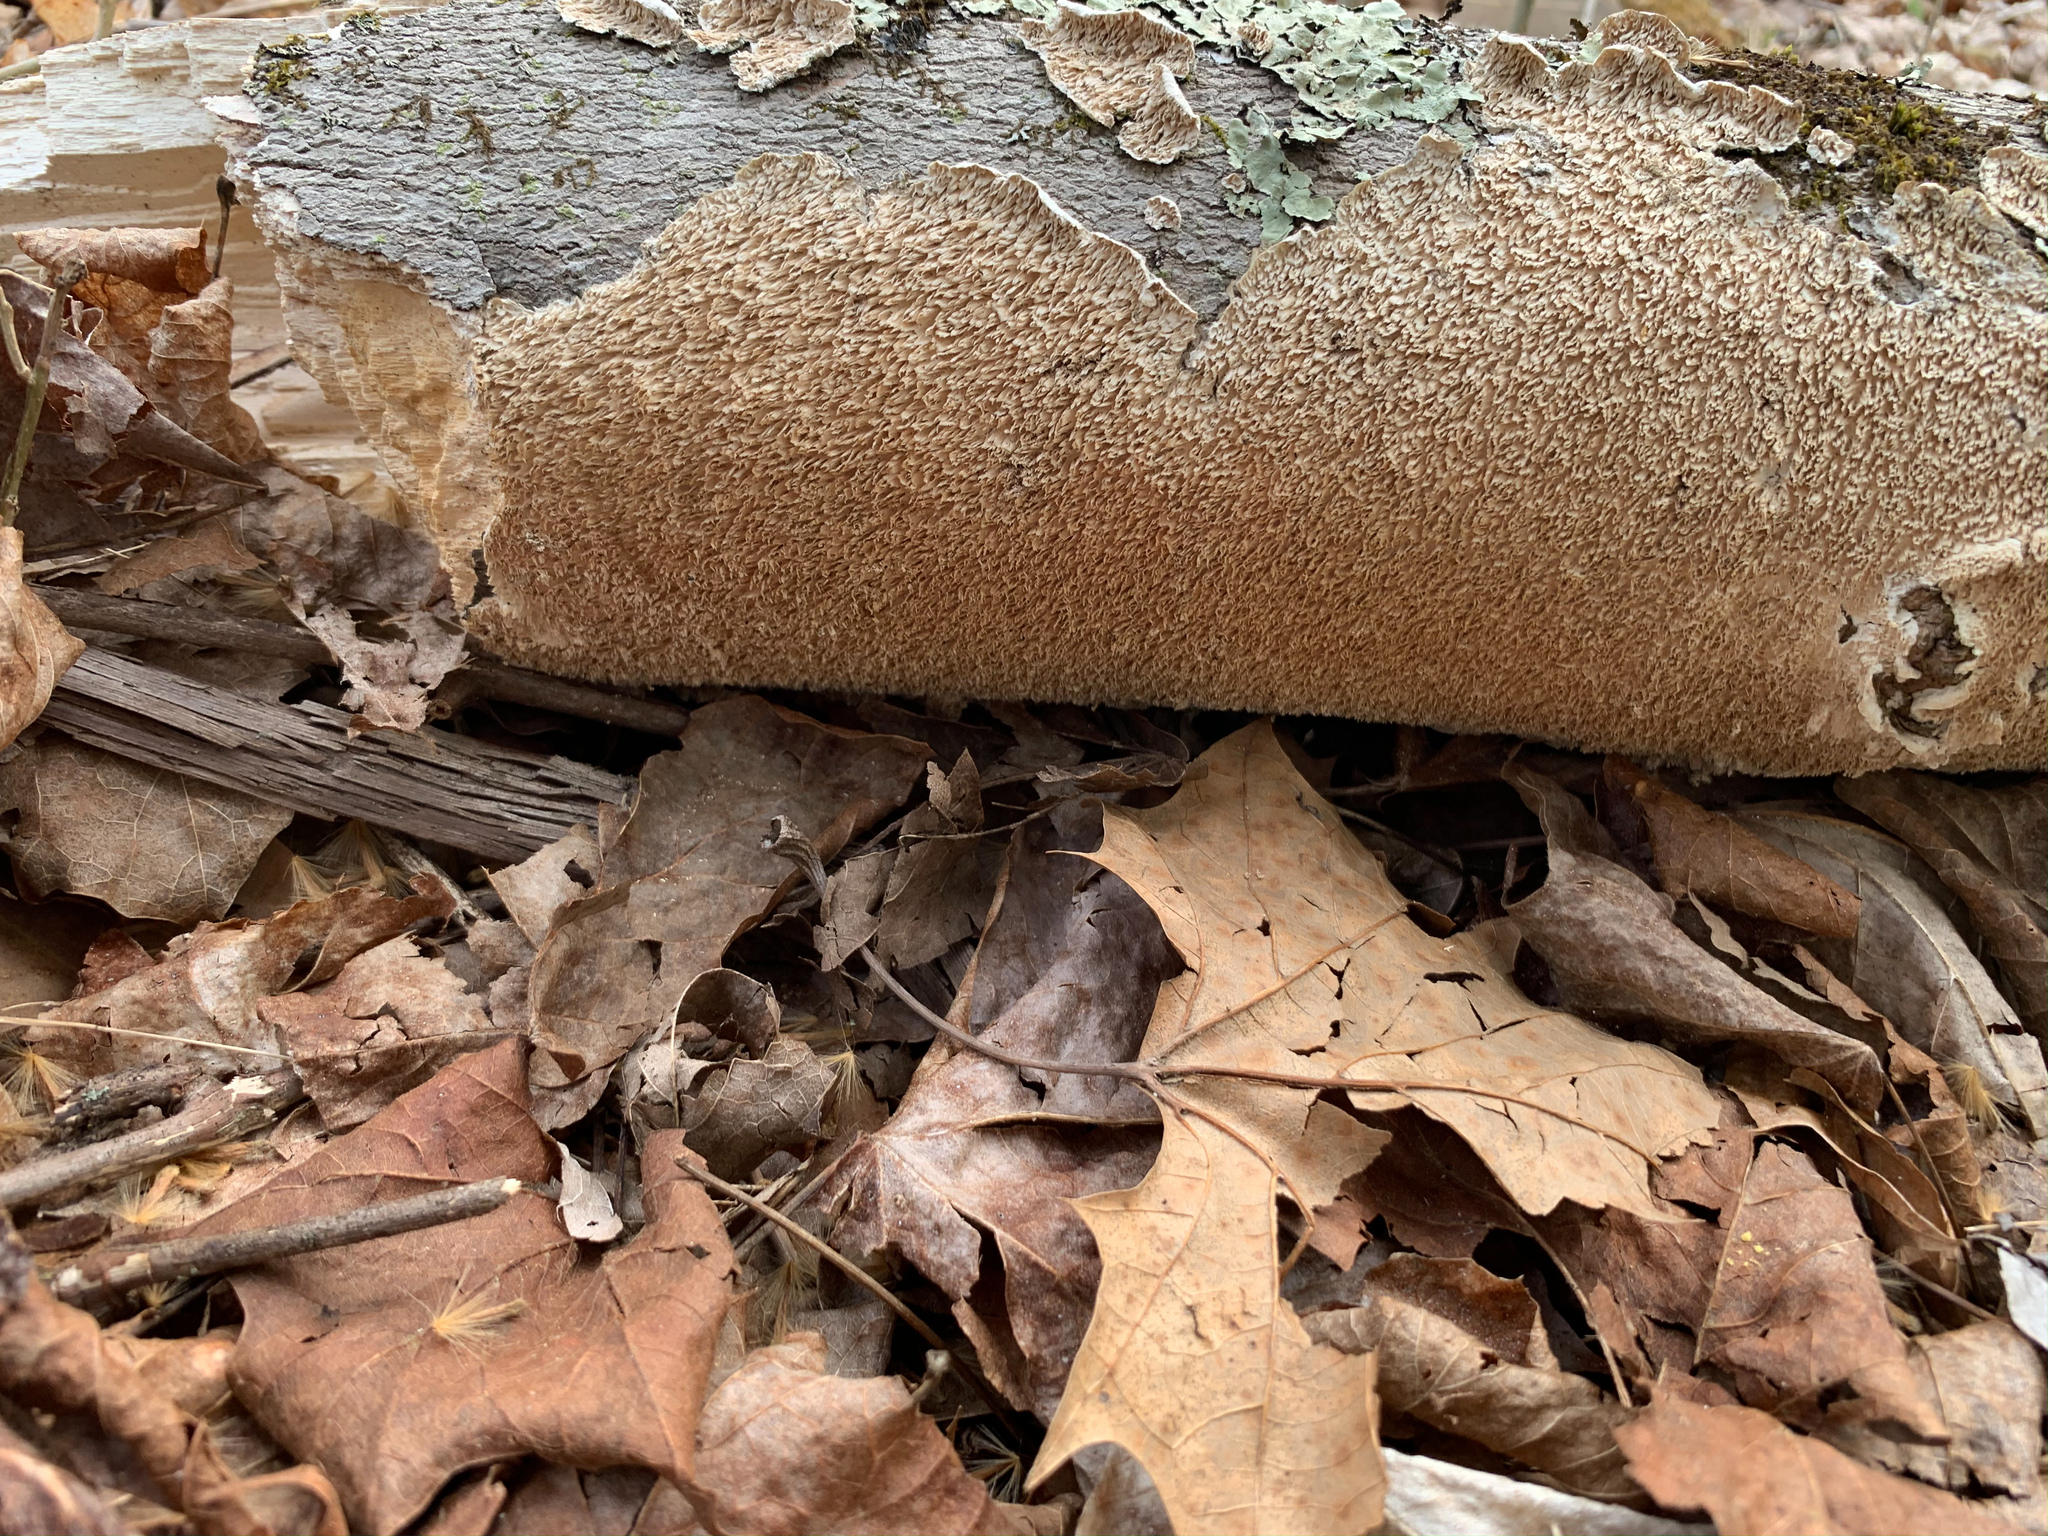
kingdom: Fungi
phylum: Basidiomycota
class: Agaricomycetes
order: Polyporales
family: Irpicaceae
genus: Irpex
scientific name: Irpex lacteus
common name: Milk-white toothed polypore
